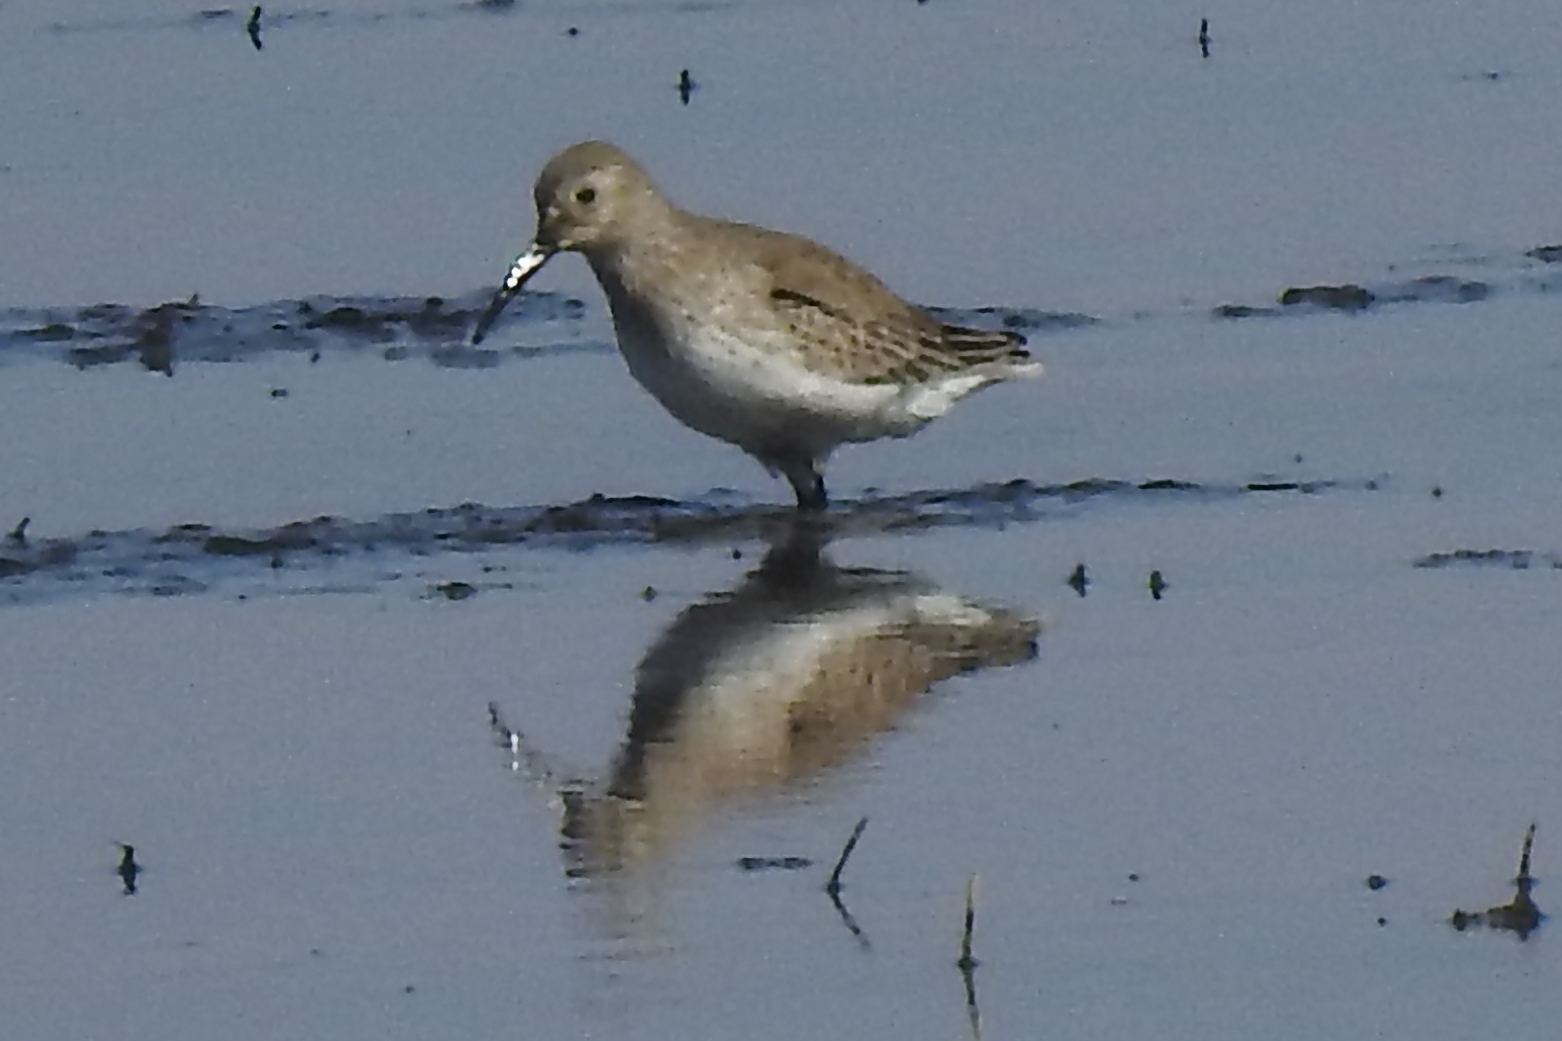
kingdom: Animalia
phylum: Chordata
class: Aves
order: Charadriiformes
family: Scolopacidae
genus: Calidris
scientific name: Calidris alpina
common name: Dunlin
